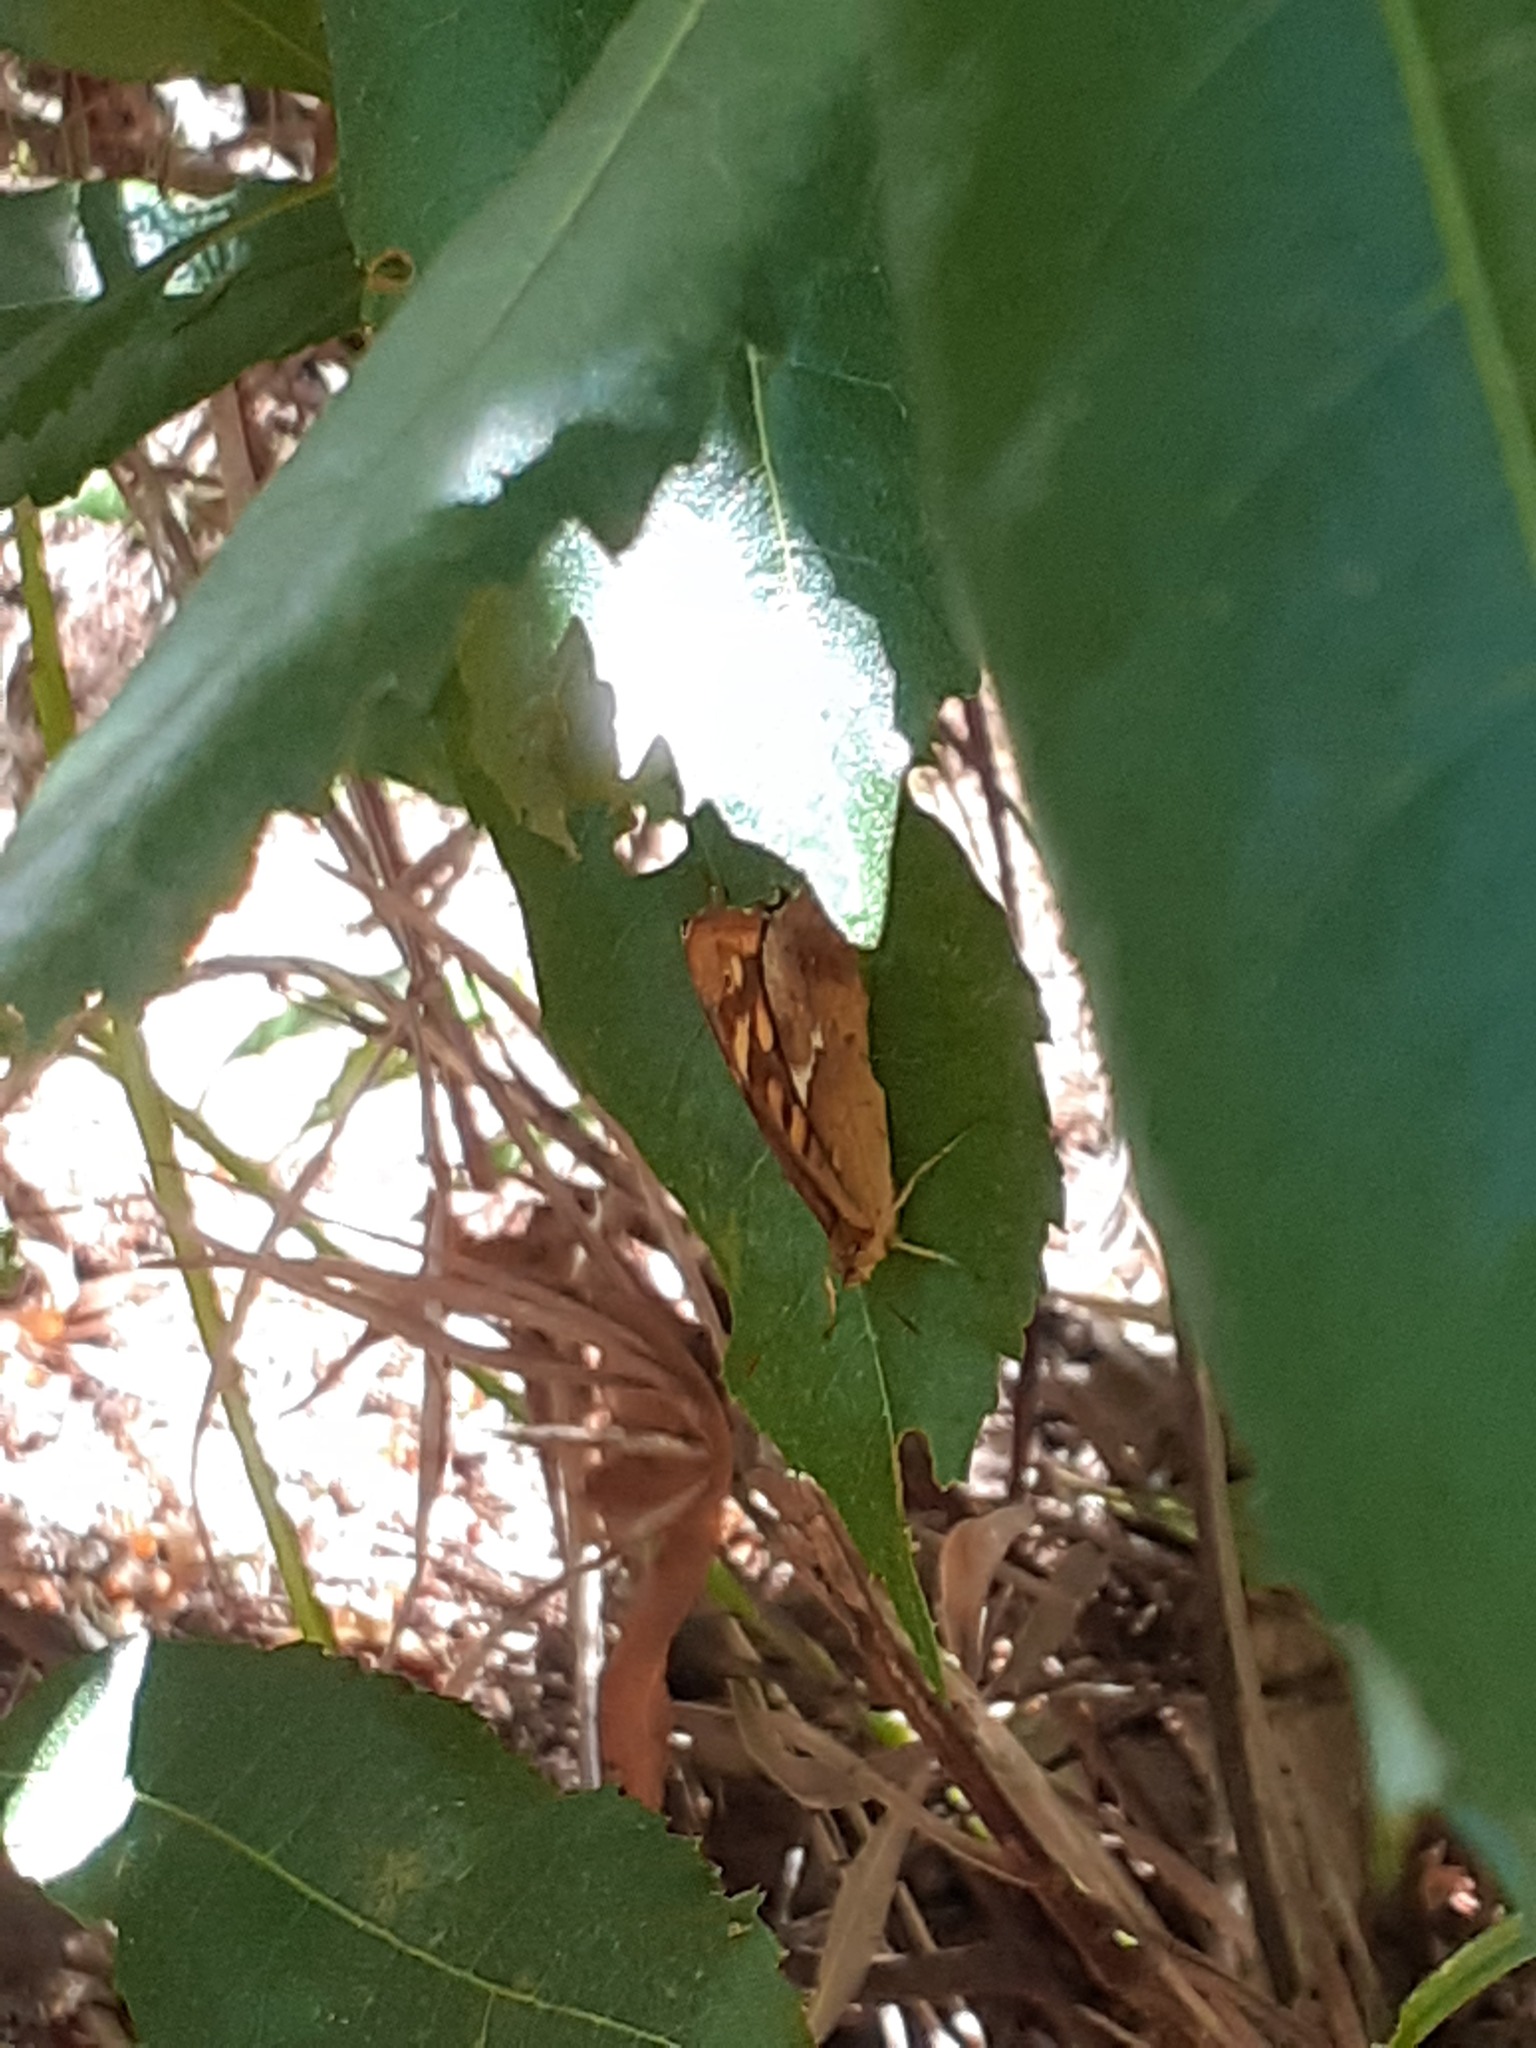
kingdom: Animalia
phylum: Arthropoda
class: Insecta
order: Lepidoptera
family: Nymphalidae
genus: Pararge
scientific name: Pararge aegeria
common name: Speckled wood
